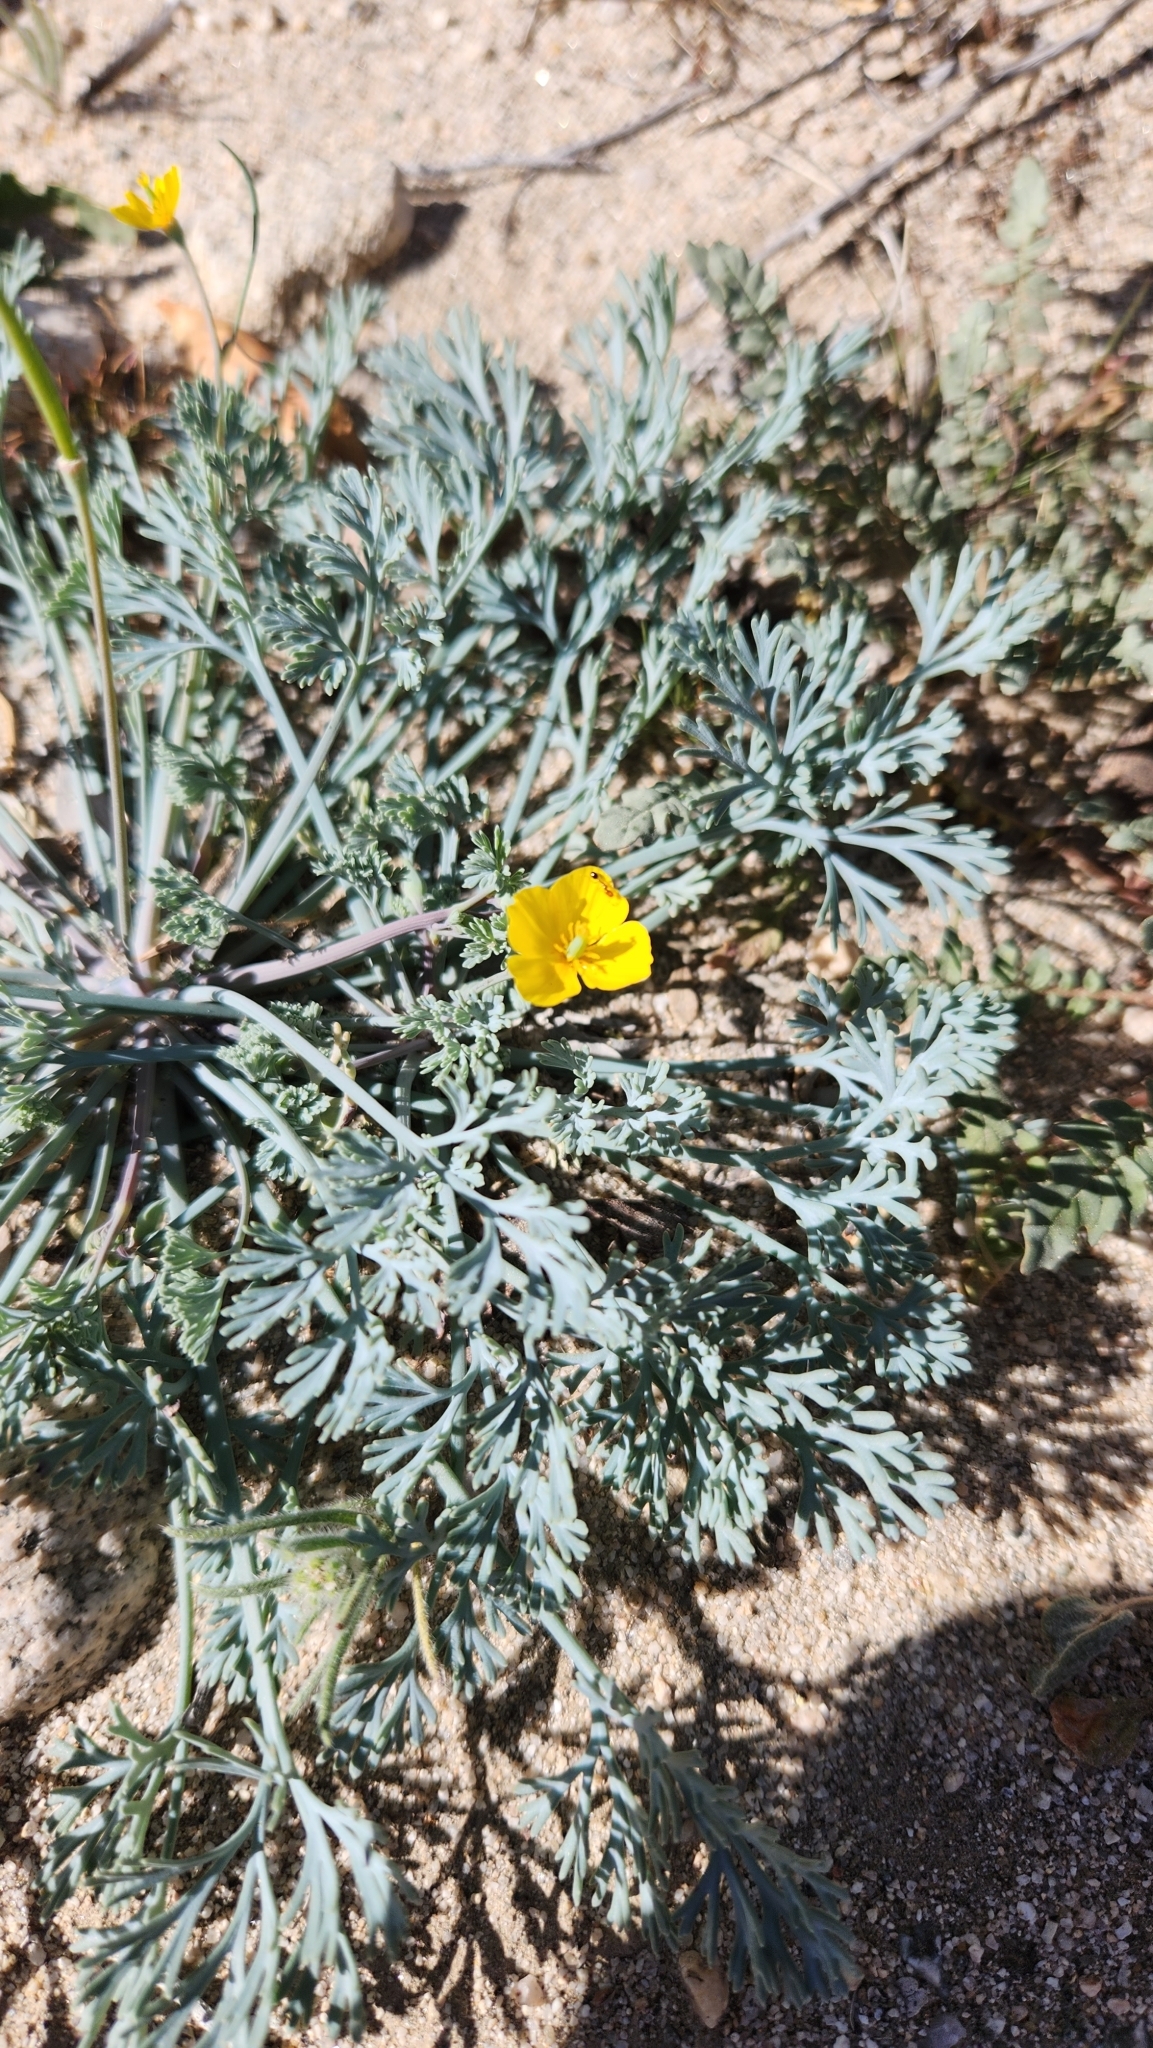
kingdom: Plantae
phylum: Tracheophyta
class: Magnoliopsida
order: Ranunculales
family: Papaveraceae
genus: Eschscholzia
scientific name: Eschscholzia minutiflora
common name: Small-flower california-poppy
